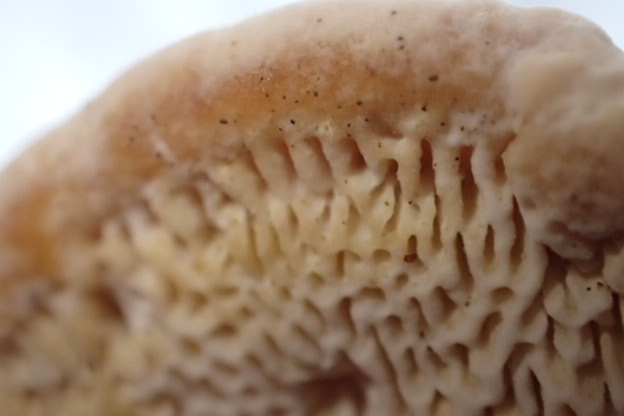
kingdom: Fungi
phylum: Basidiomycota
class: Agaricomycetes
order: Polyporales
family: Polyporaceae
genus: Trametes
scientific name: Trametes gibbosa
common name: Lumpy bracket
